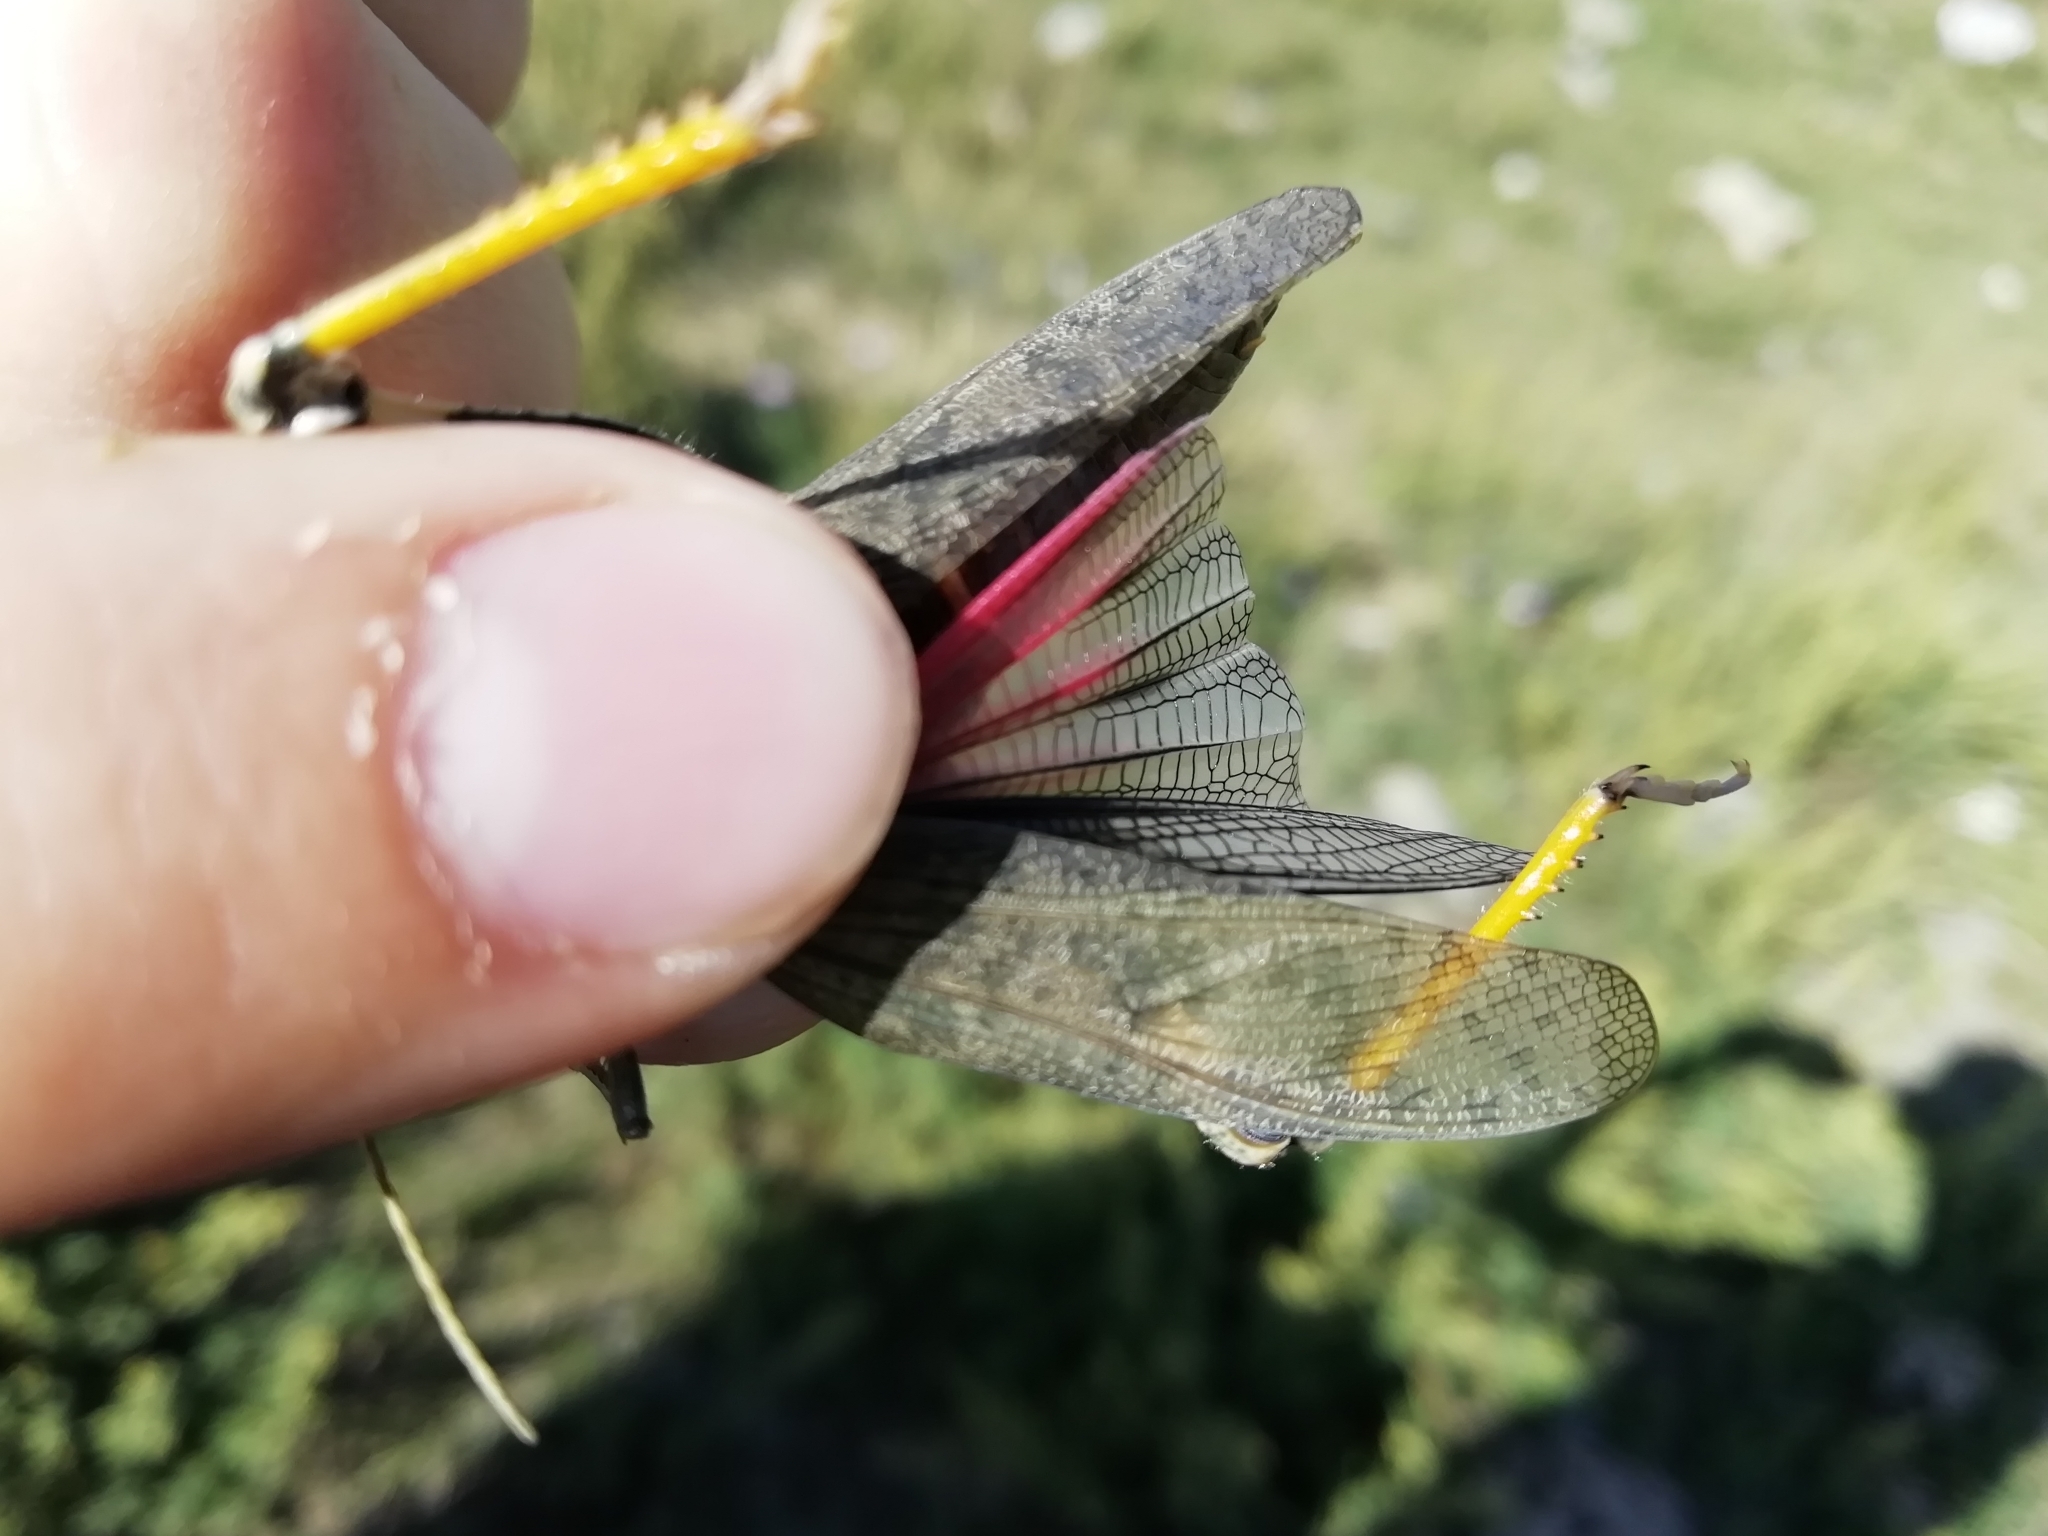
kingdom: Animalia
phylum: Arthropoda
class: Insecta
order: Orthoptera
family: Acrididae
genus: Bryodemella
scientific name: Bryodemella holdereri
